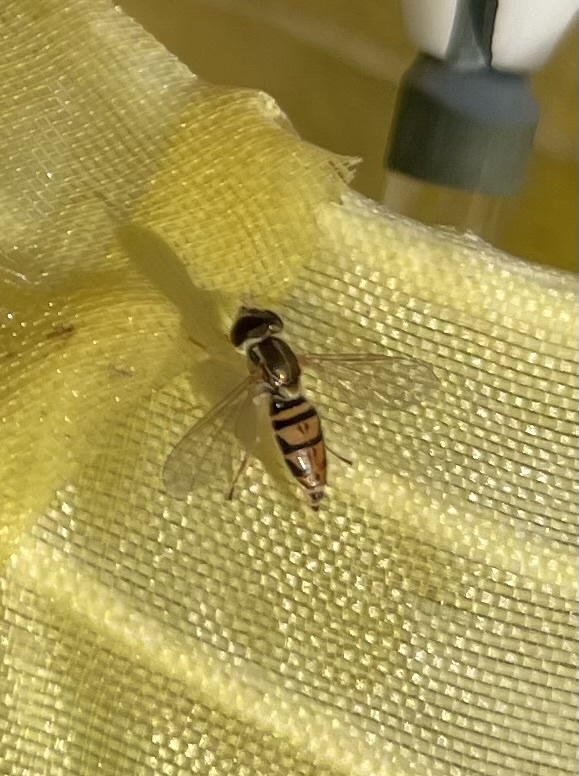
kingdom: Animalia
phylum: Arthropoda
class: Insecta
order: Diptera
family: Syrphidae
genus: Toxomerus
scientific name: Toxomerus marginatus
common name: Syrphid fly
